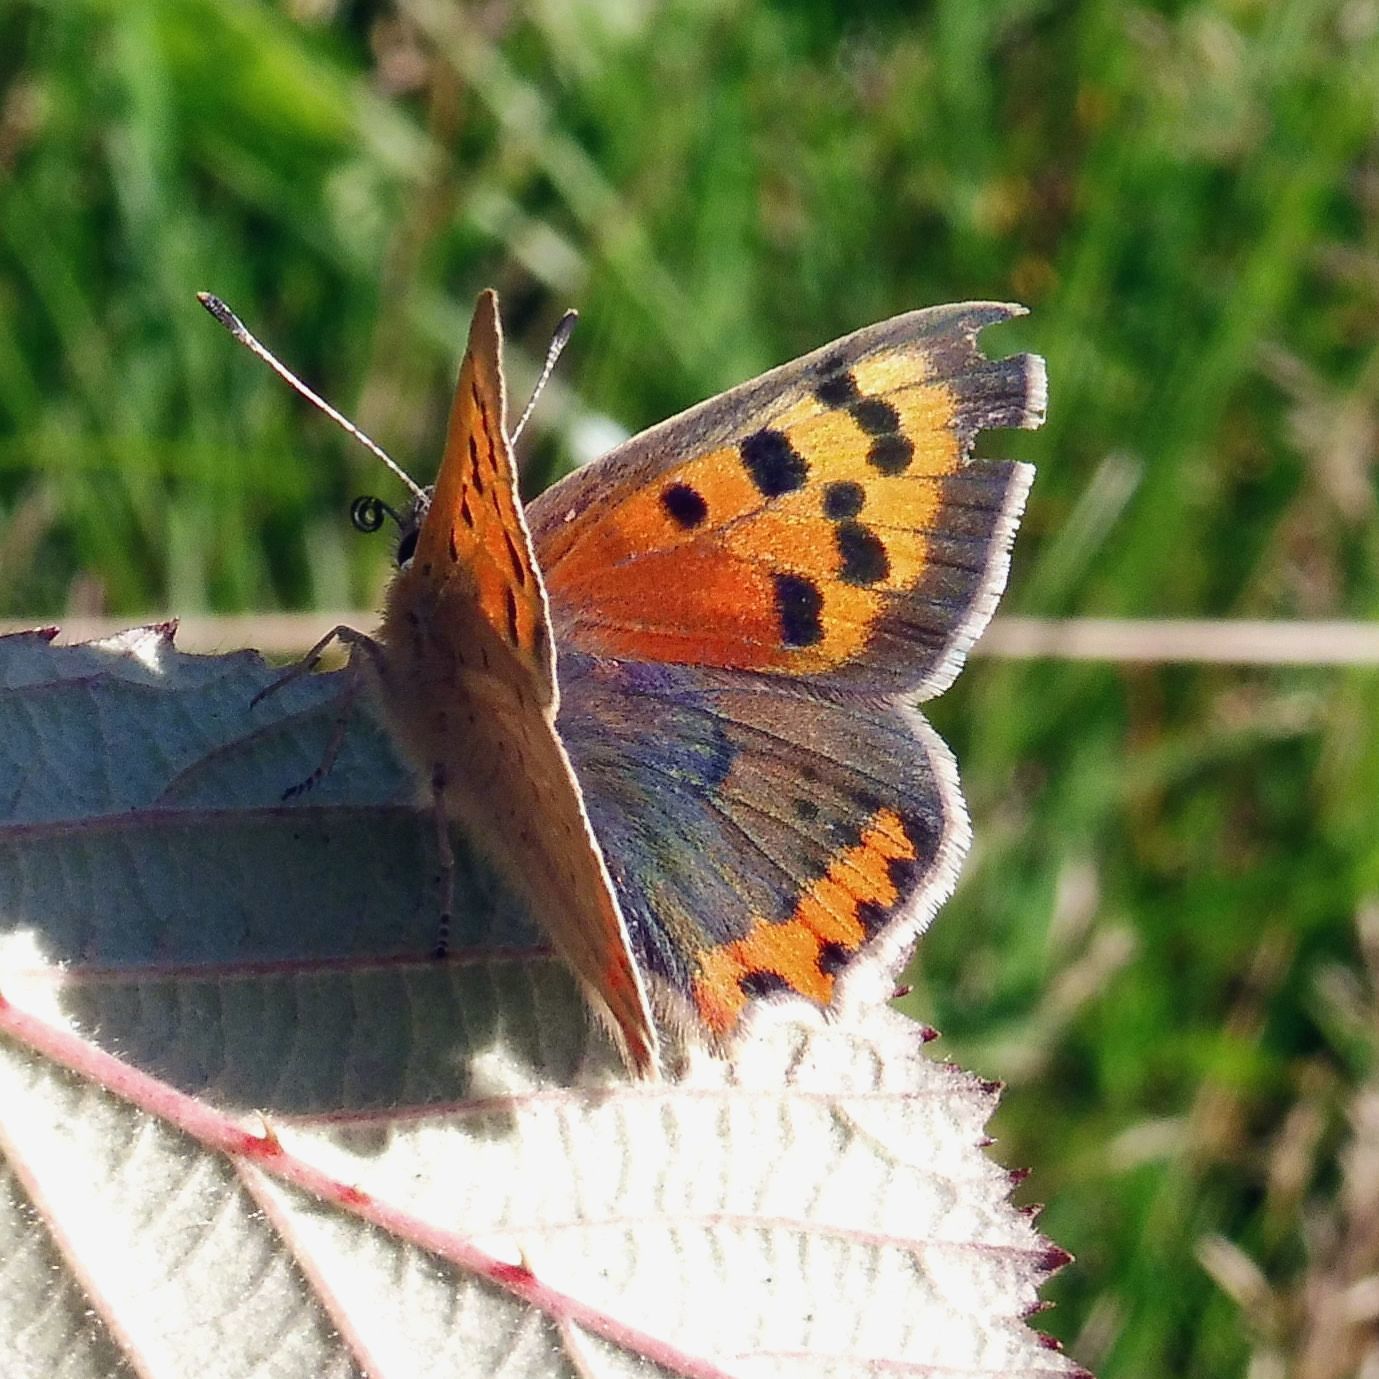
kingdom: Animalia
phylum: Arthropoda
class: Insecta
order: Lepidoptera
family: Lycaenidae
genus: Lycaena
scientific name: Lycaena phlaeas
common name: Small copper
